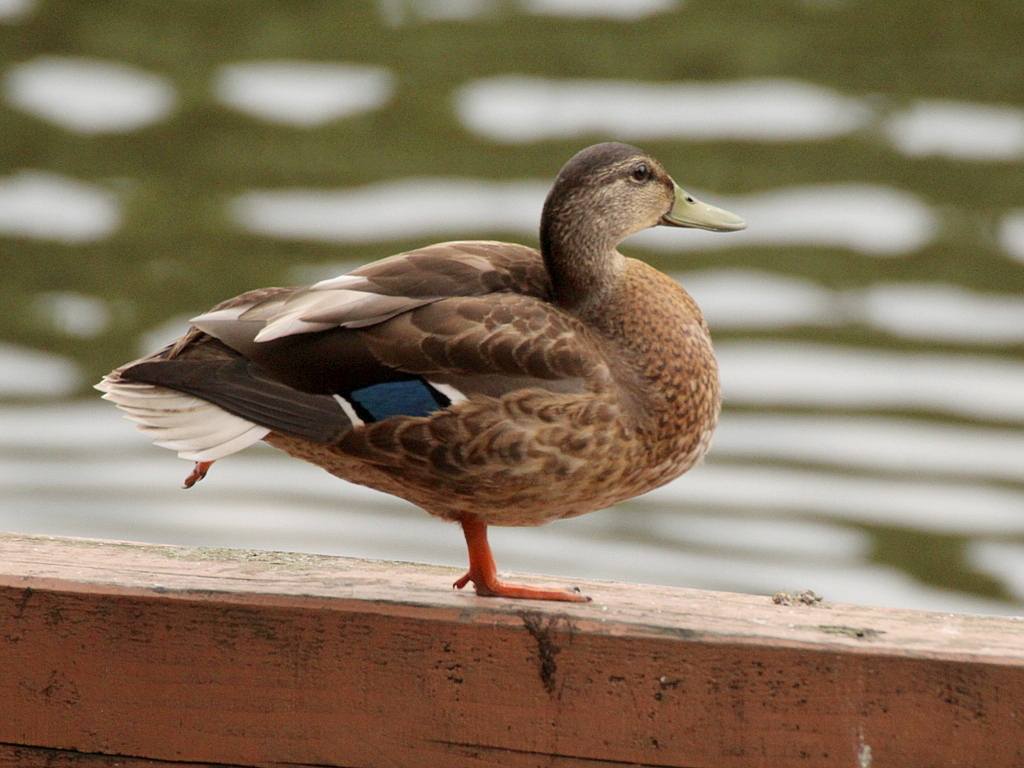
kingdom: Animalia
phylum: Chordata
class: Aves
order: Anseriformes
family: Anatidae
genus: Anas
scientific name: Anas platyrhynchos
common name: Mallard
